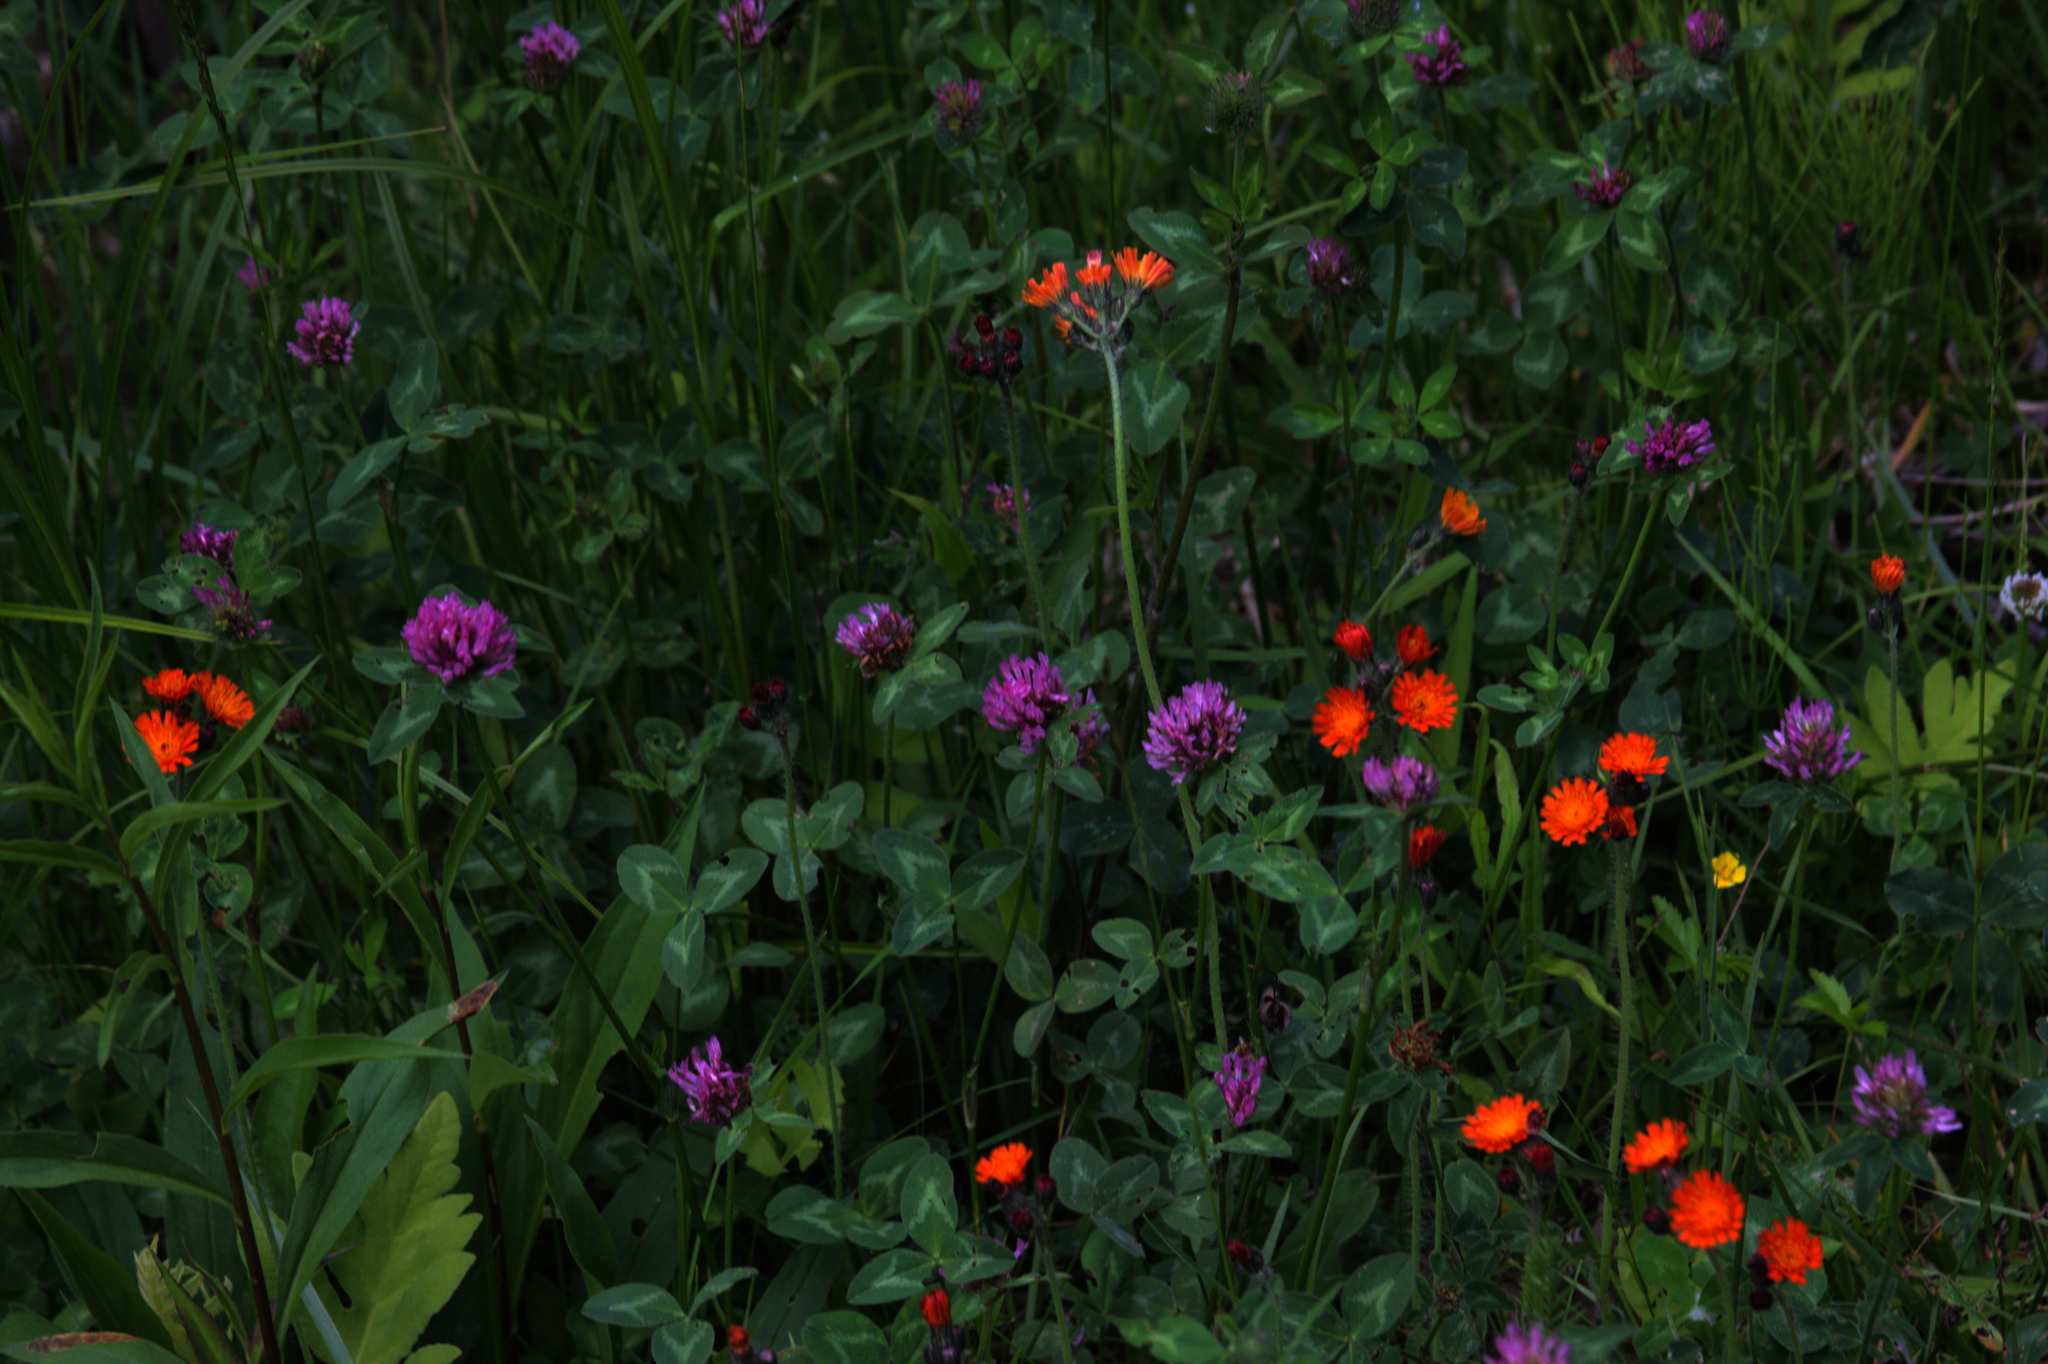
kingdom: Plantae
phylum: Tracheophyta
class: Magnoliopsida
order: Asterales
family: Asteraceae
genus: Pilosella
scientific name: Pilosella aurantiaca
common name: Fox-and-cubs
